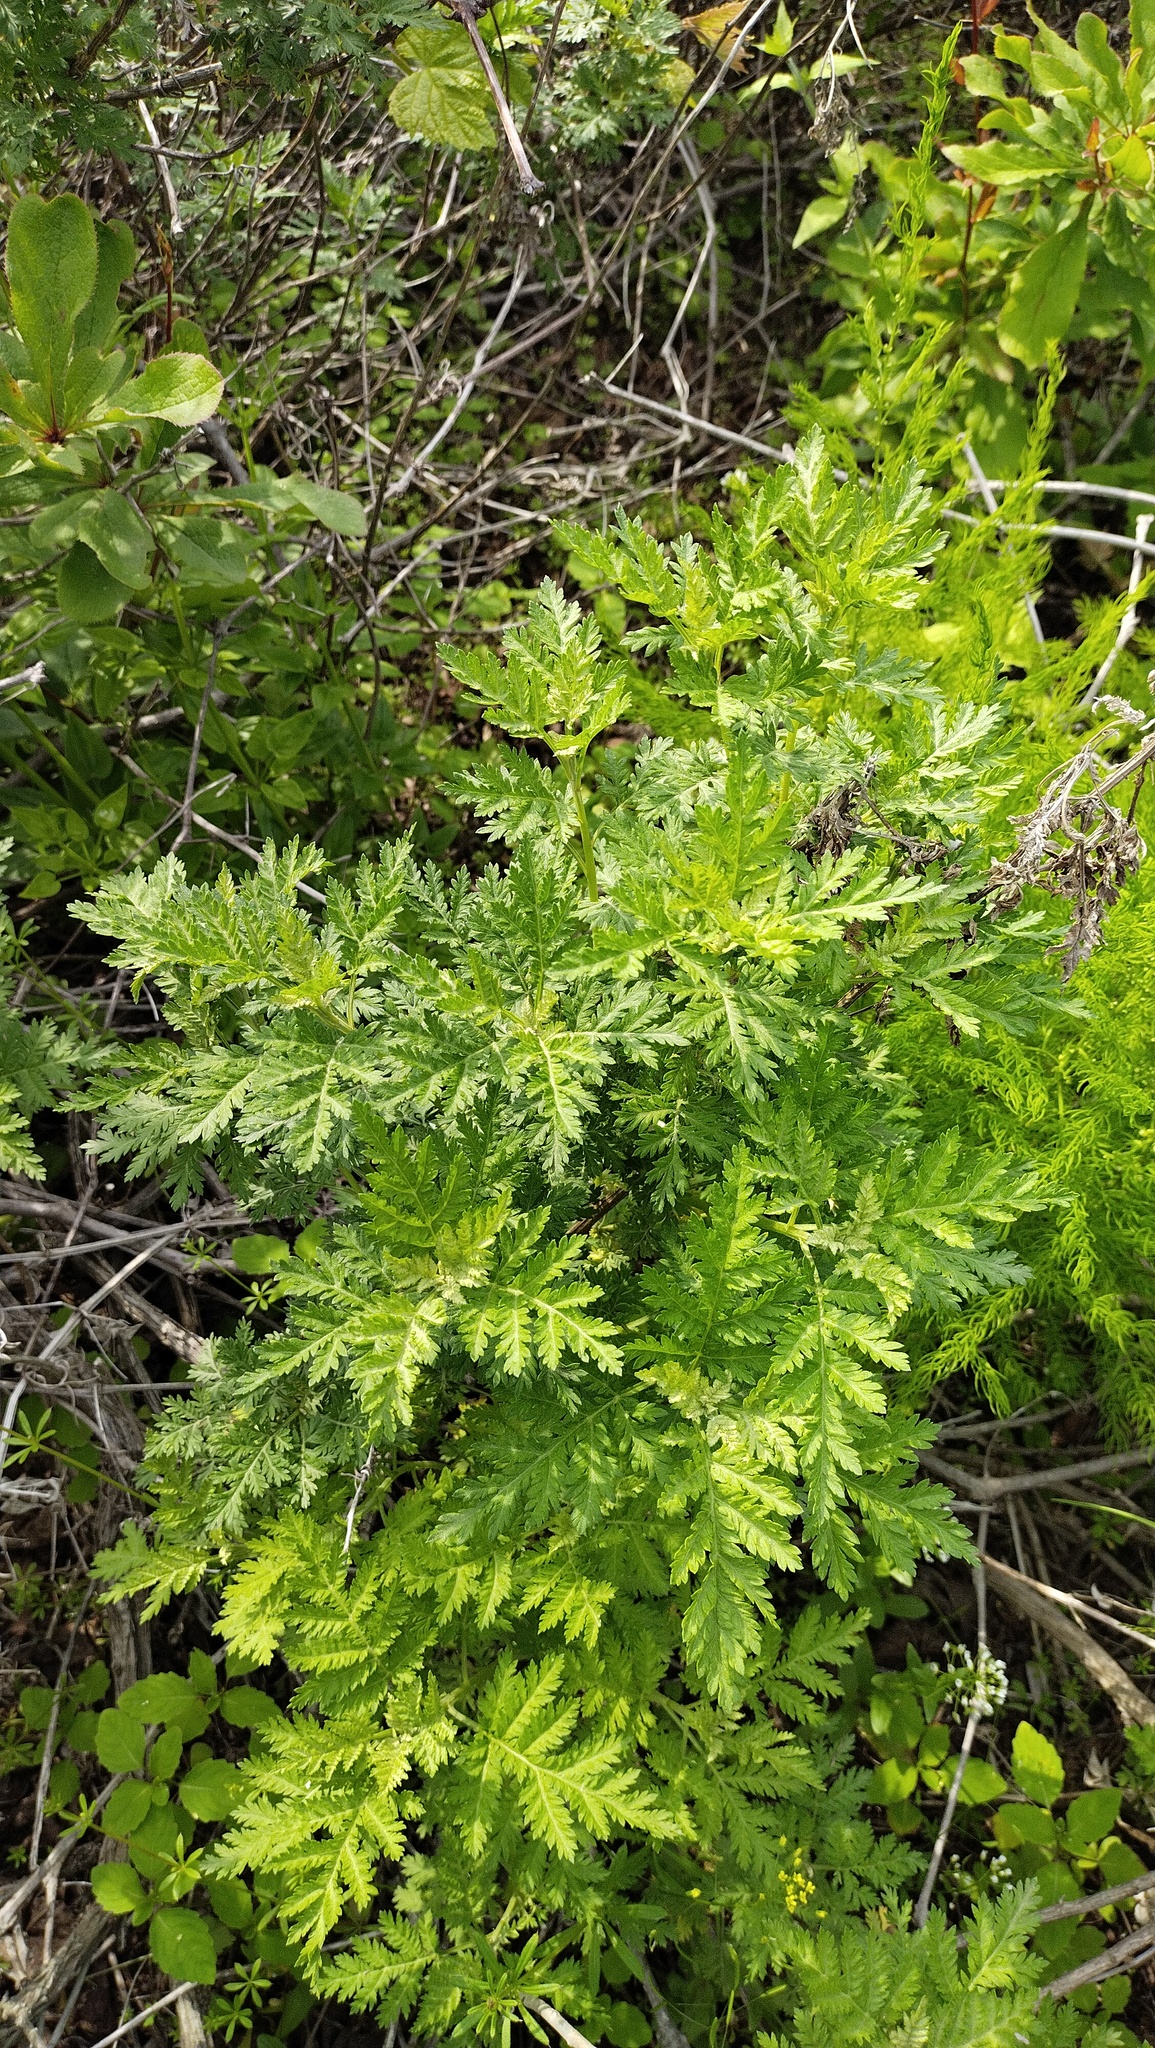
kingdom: Plantae
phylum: Tracheophyta
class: Magnoliopsida
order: Asterales
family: Asteraceae
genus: Artemisia
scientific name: Artemisia gmelinii
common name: Gmelin's wormwood
